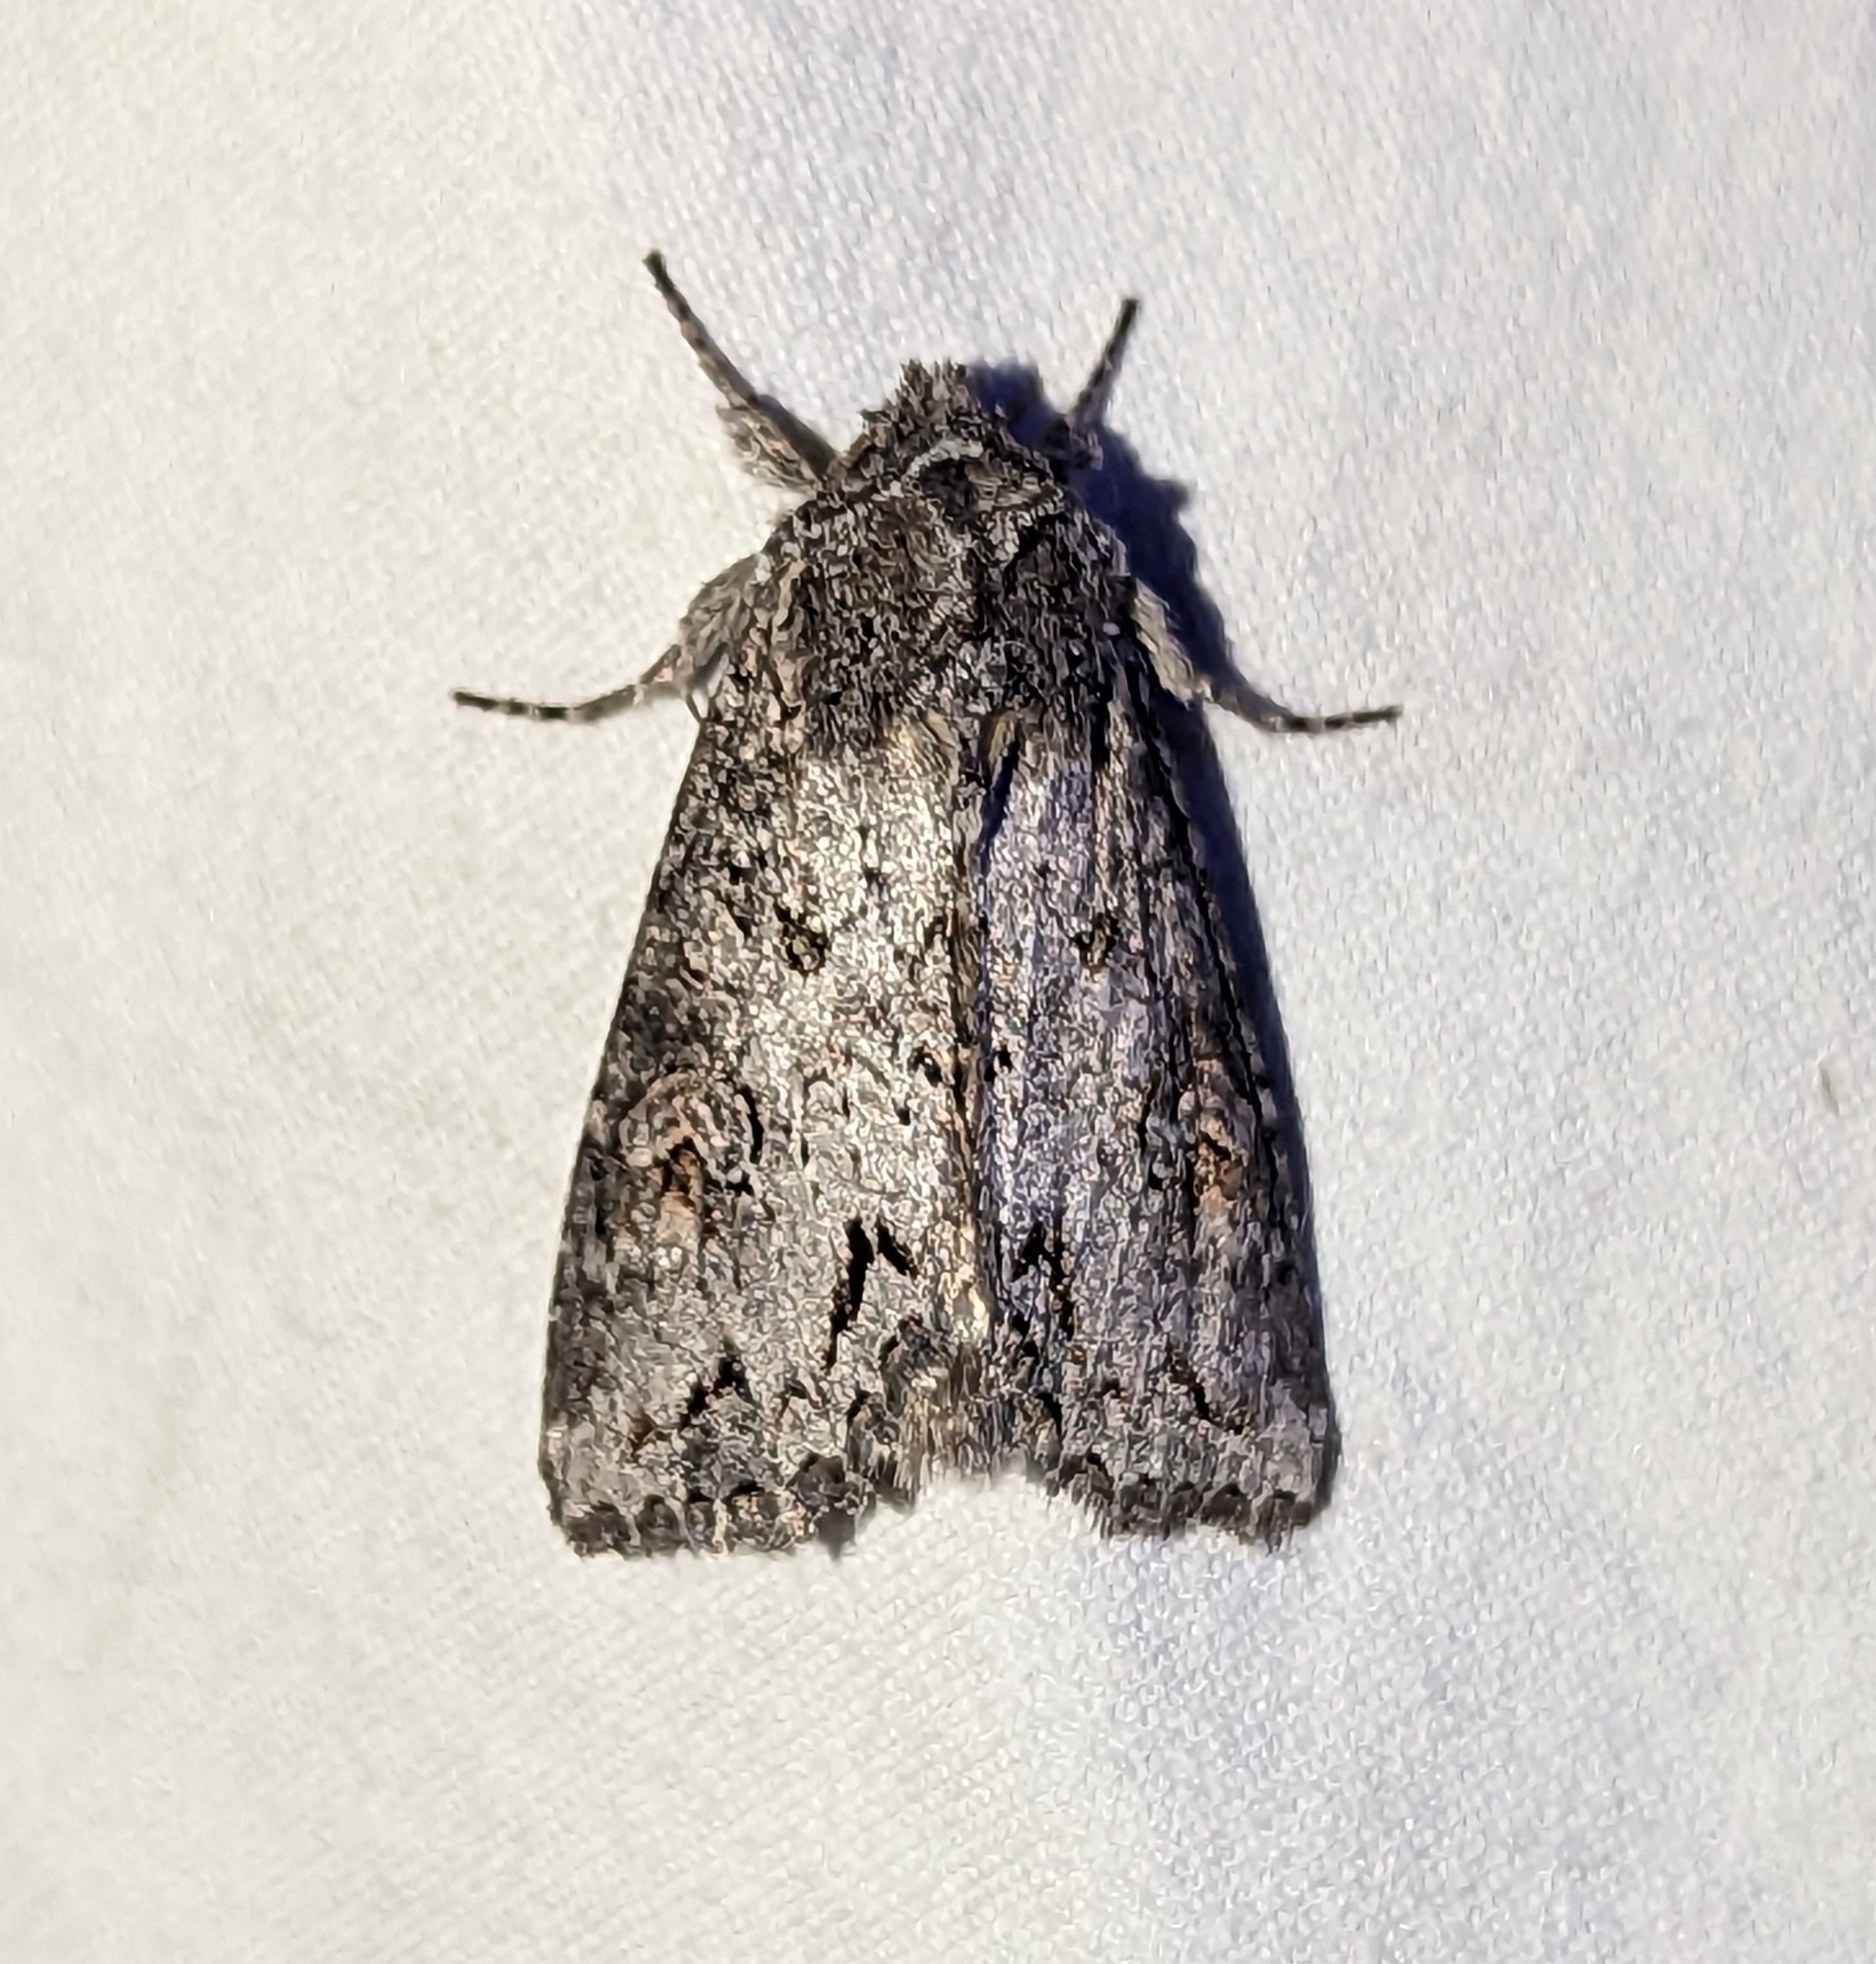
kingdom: Animalia
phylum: Arthropoda
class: Insecta
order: Lepidoptera
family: Noctuidae
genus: Polia
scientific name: Polia purpurissata
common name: Purple arches moth
